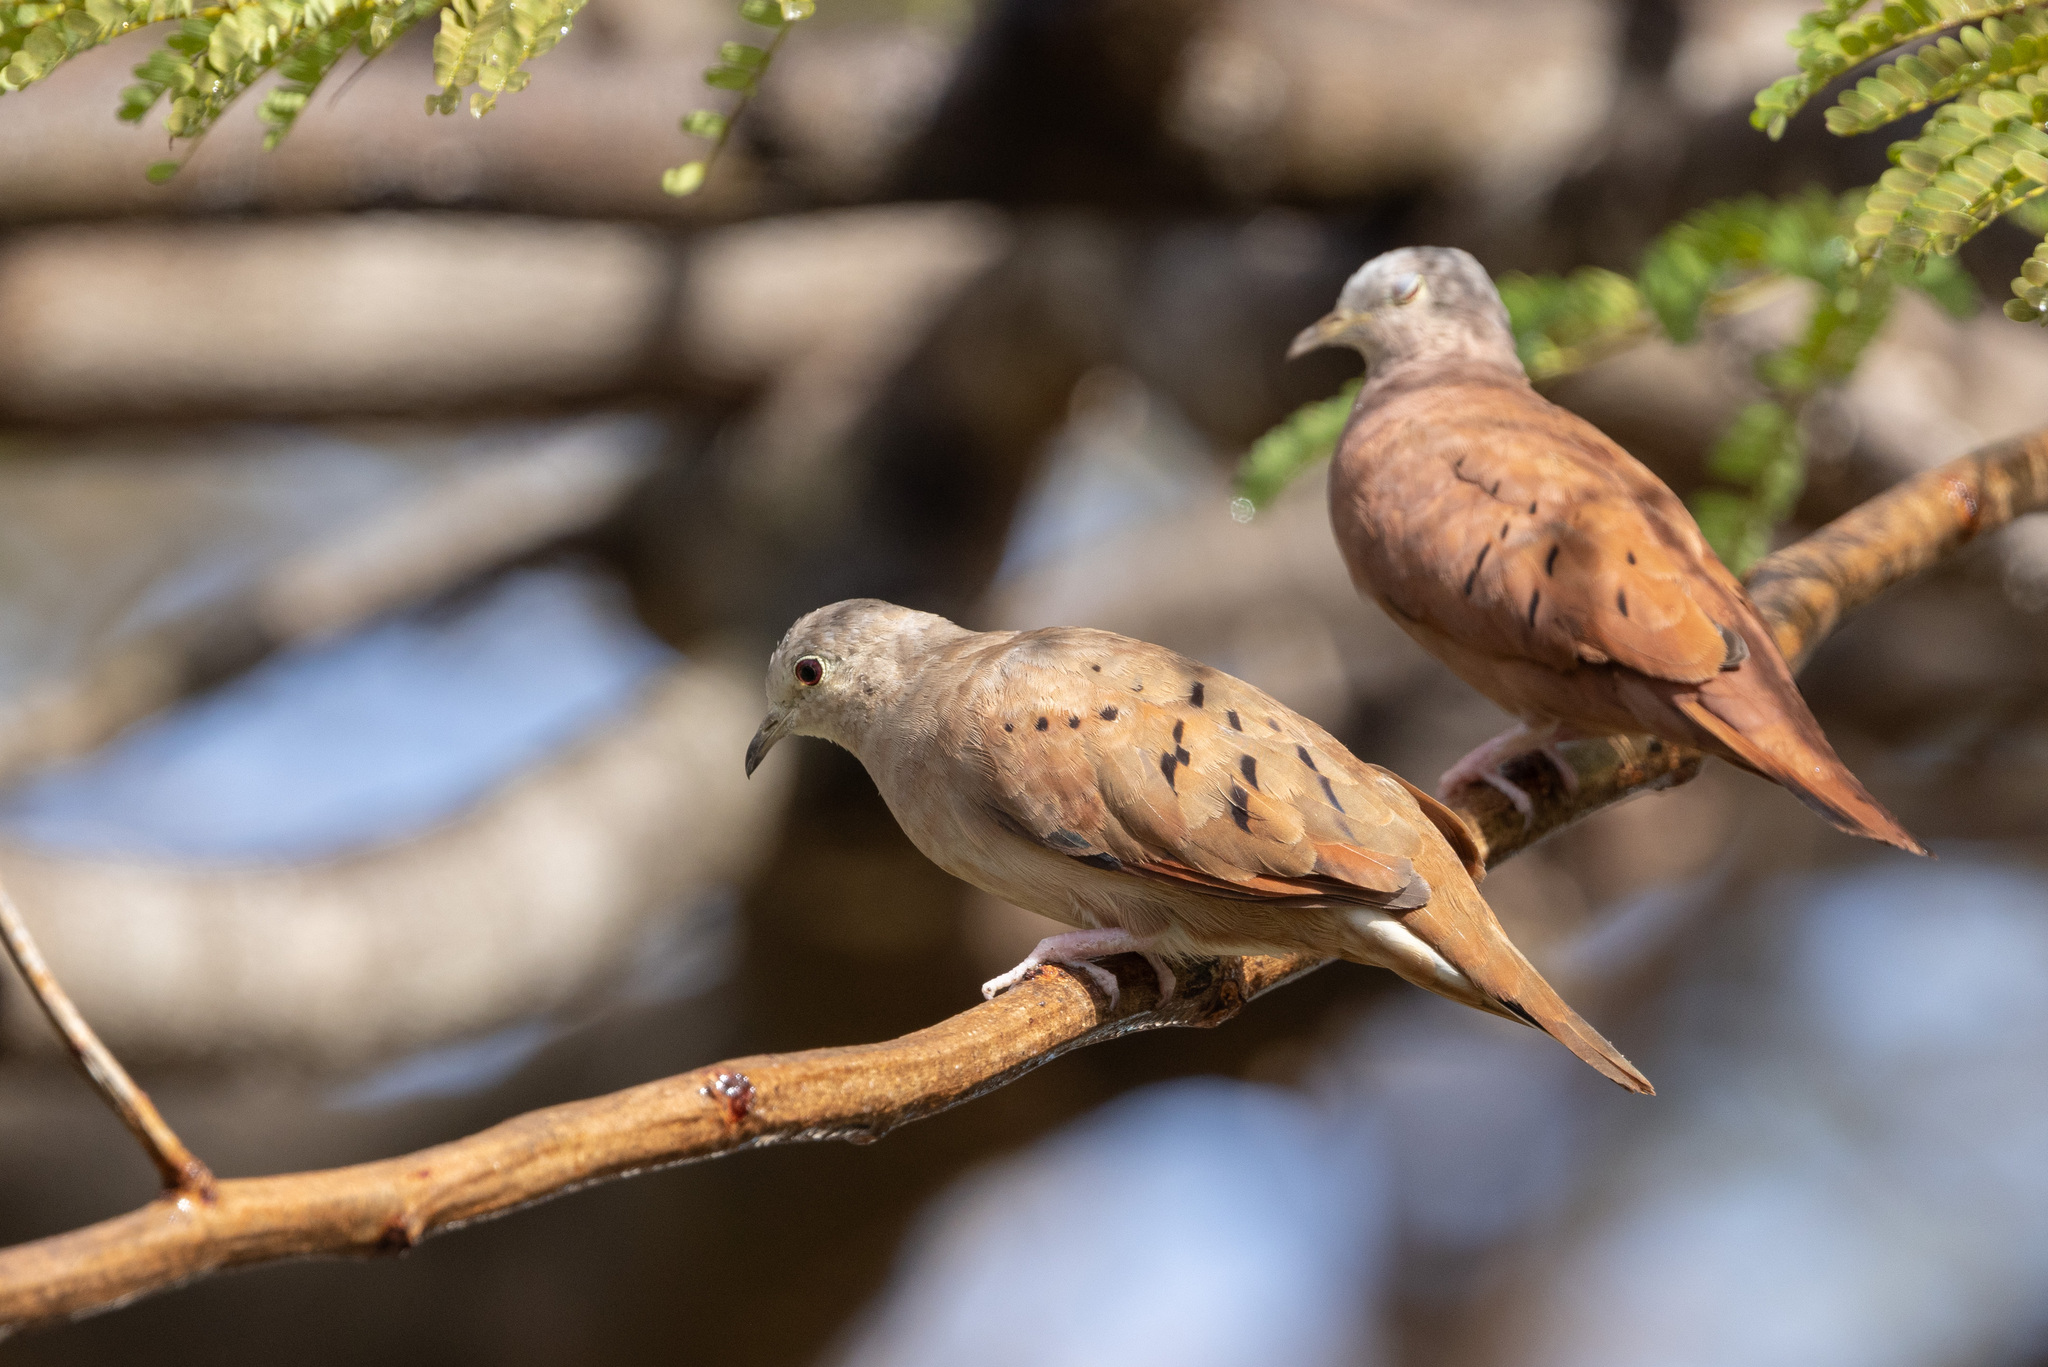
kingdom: Animalia
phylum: Chordata
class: Aves
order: Columbiformes
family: Columbidae
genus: Columbina
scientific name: Columbina talpacoti
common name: Ruddy ground dove
